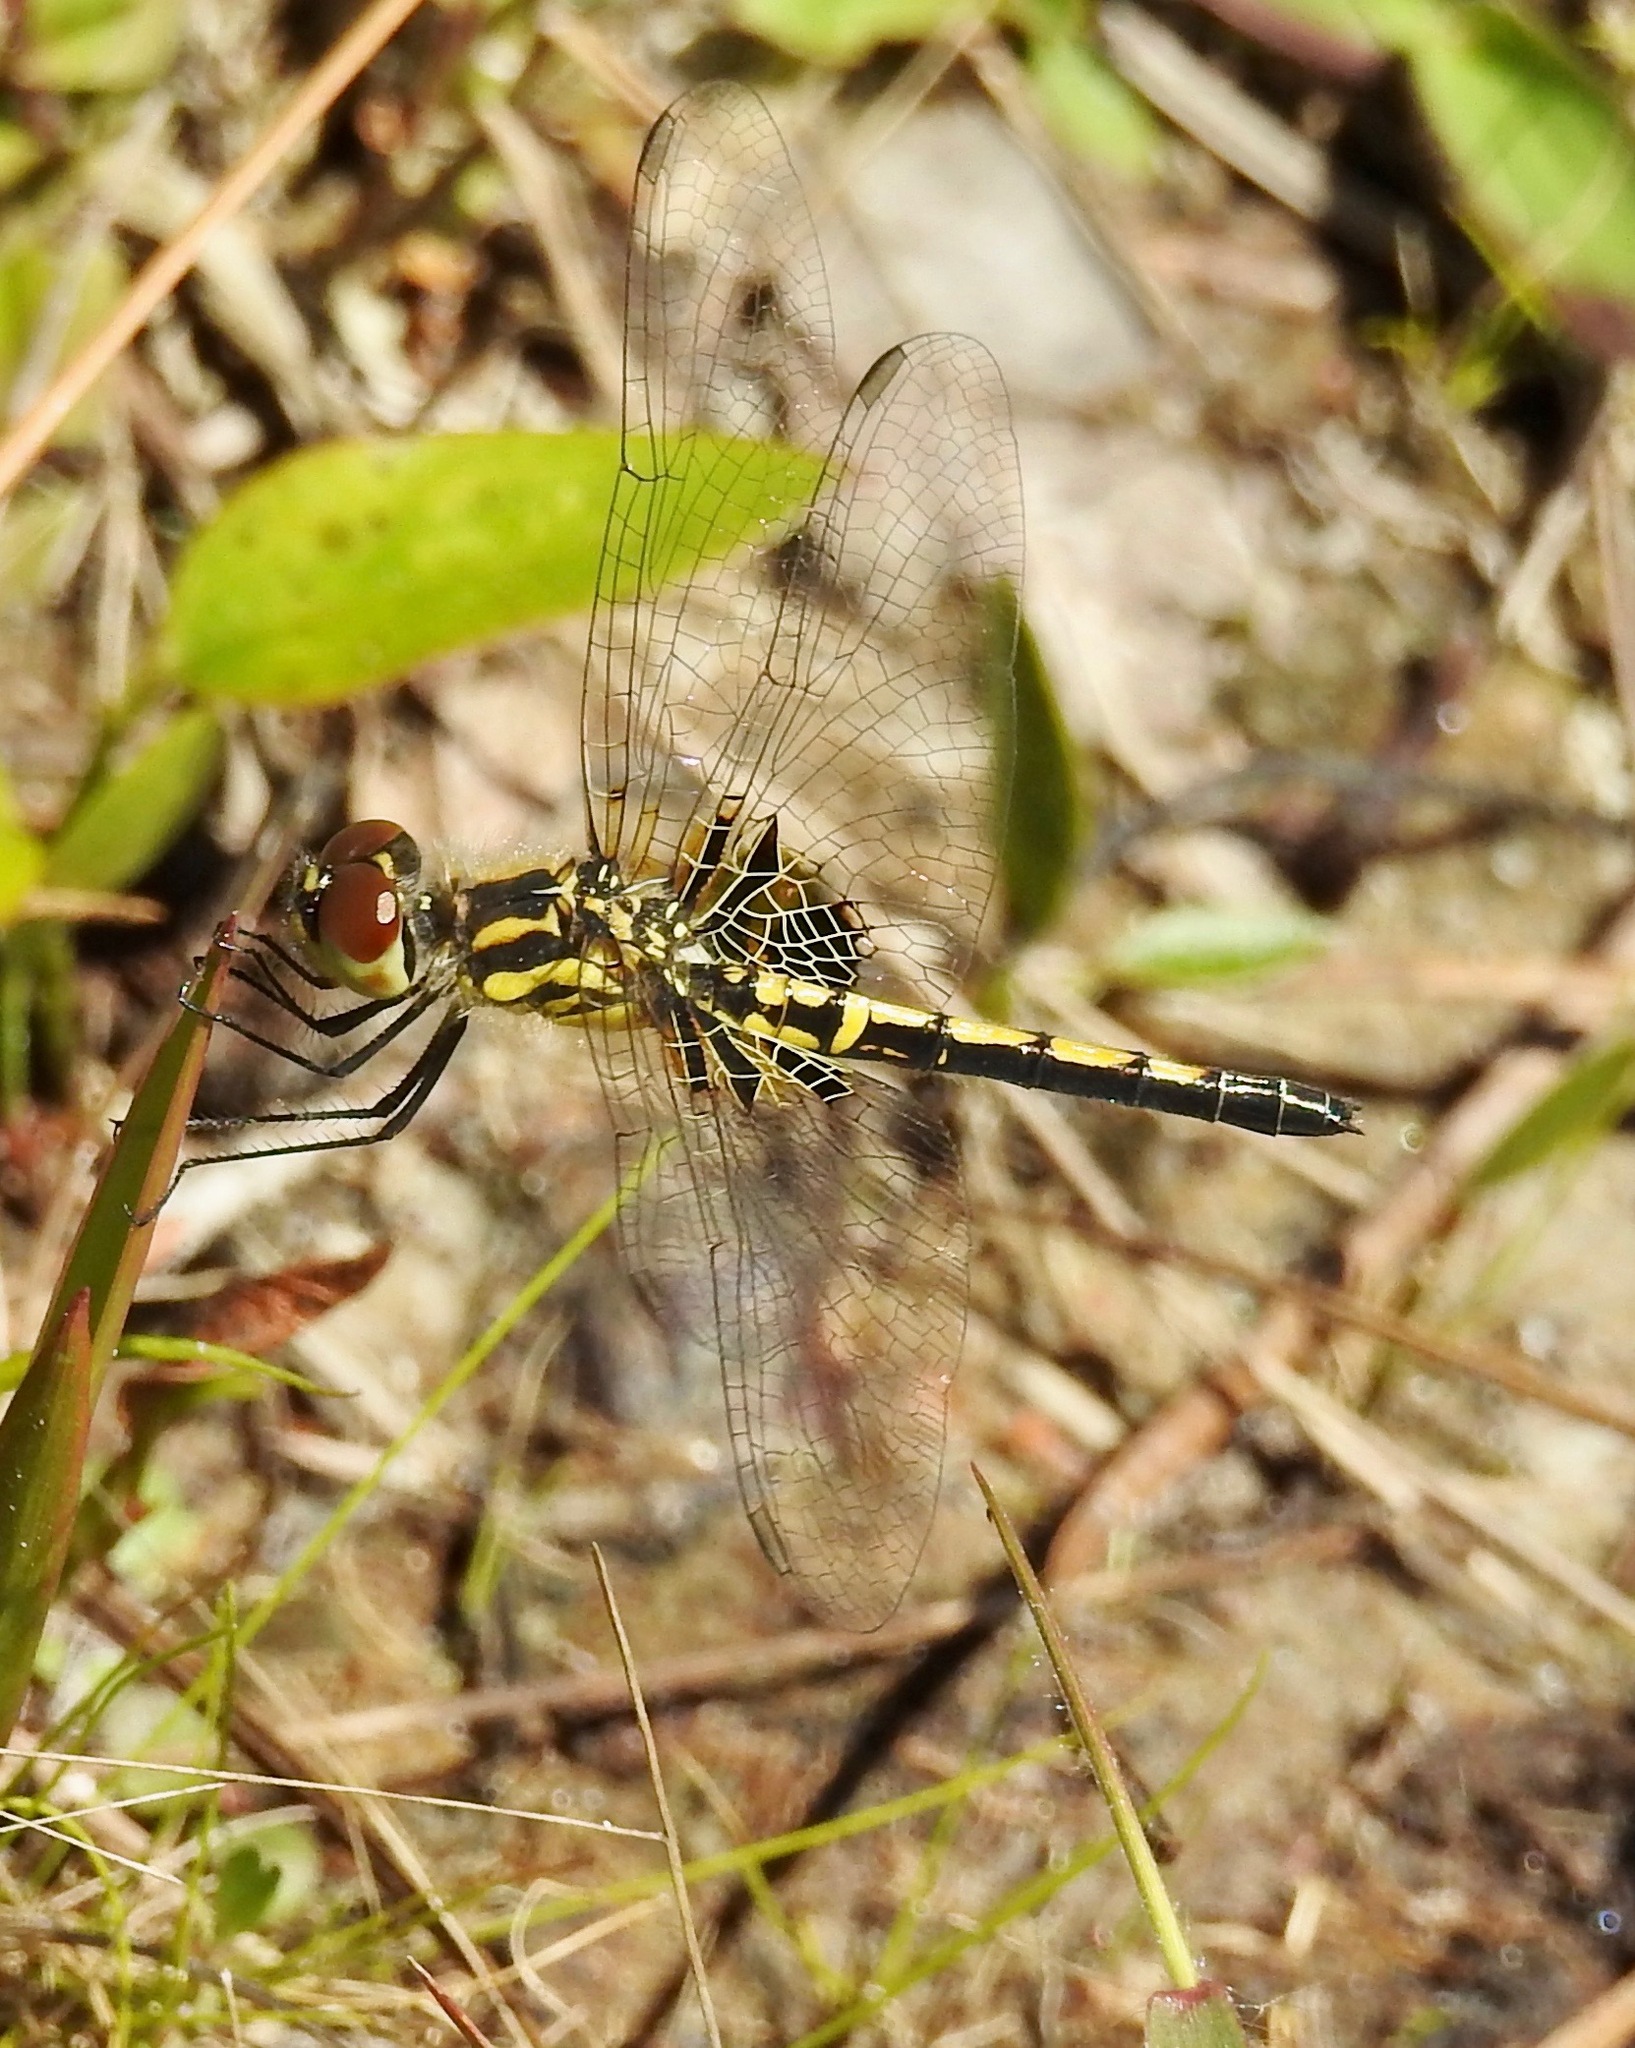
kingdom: Animalia
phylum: Arthropoda
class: Insecta
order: Odonata
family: Libellulidae
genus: Celithemis
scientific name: Celithemis ornata
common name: Ornate pennant
